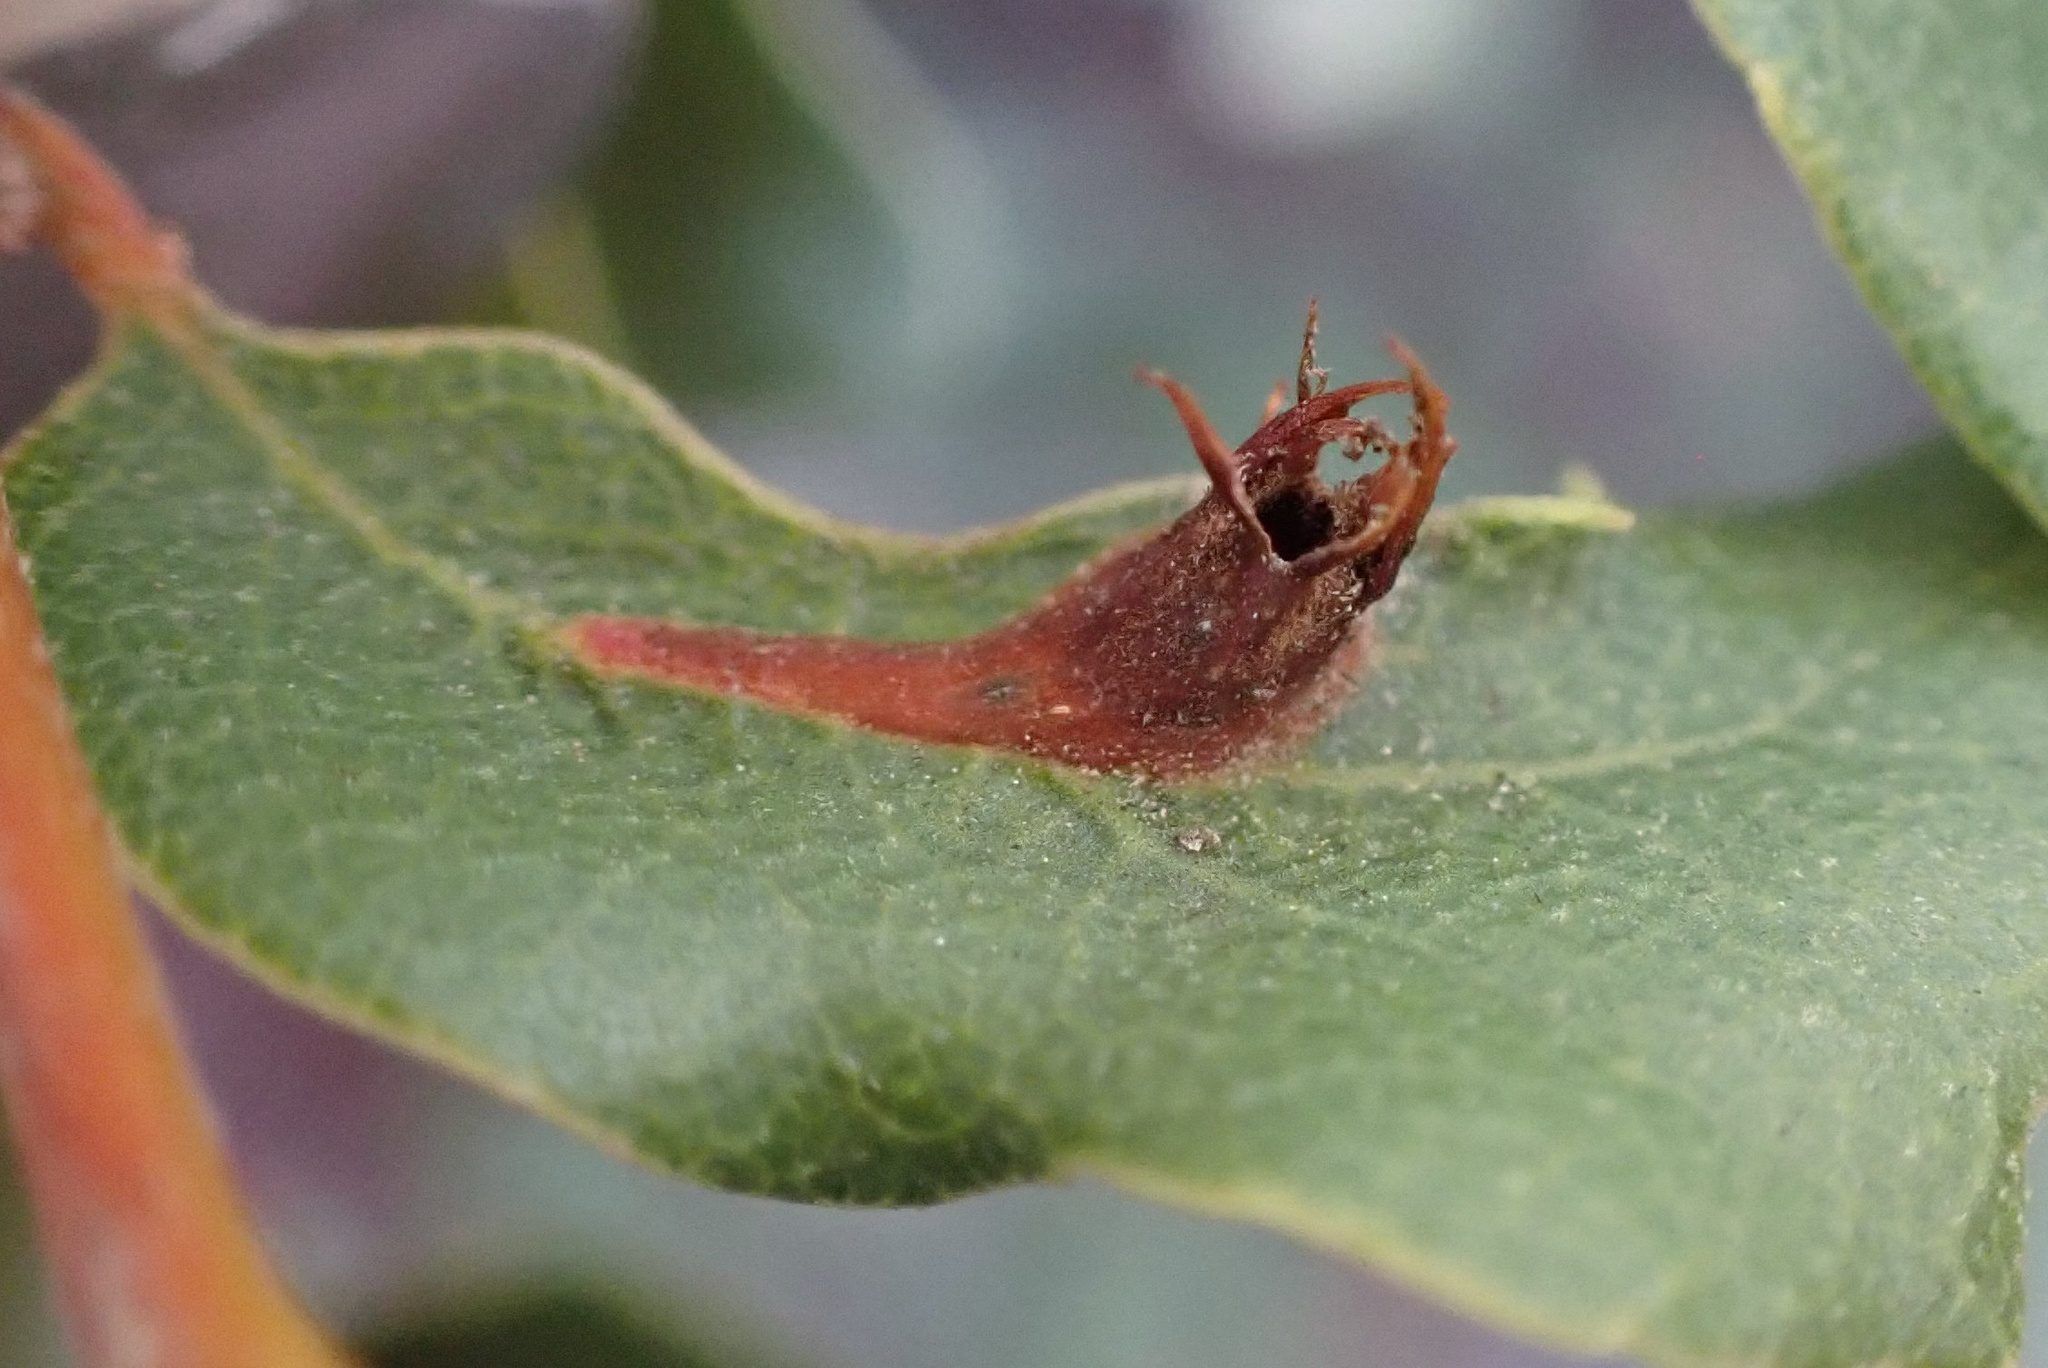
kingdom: Animalia
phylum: Arthropoda
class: Insecta
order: Hymenoptera
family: Cynipidae
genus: Andricus
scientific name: Andricus
